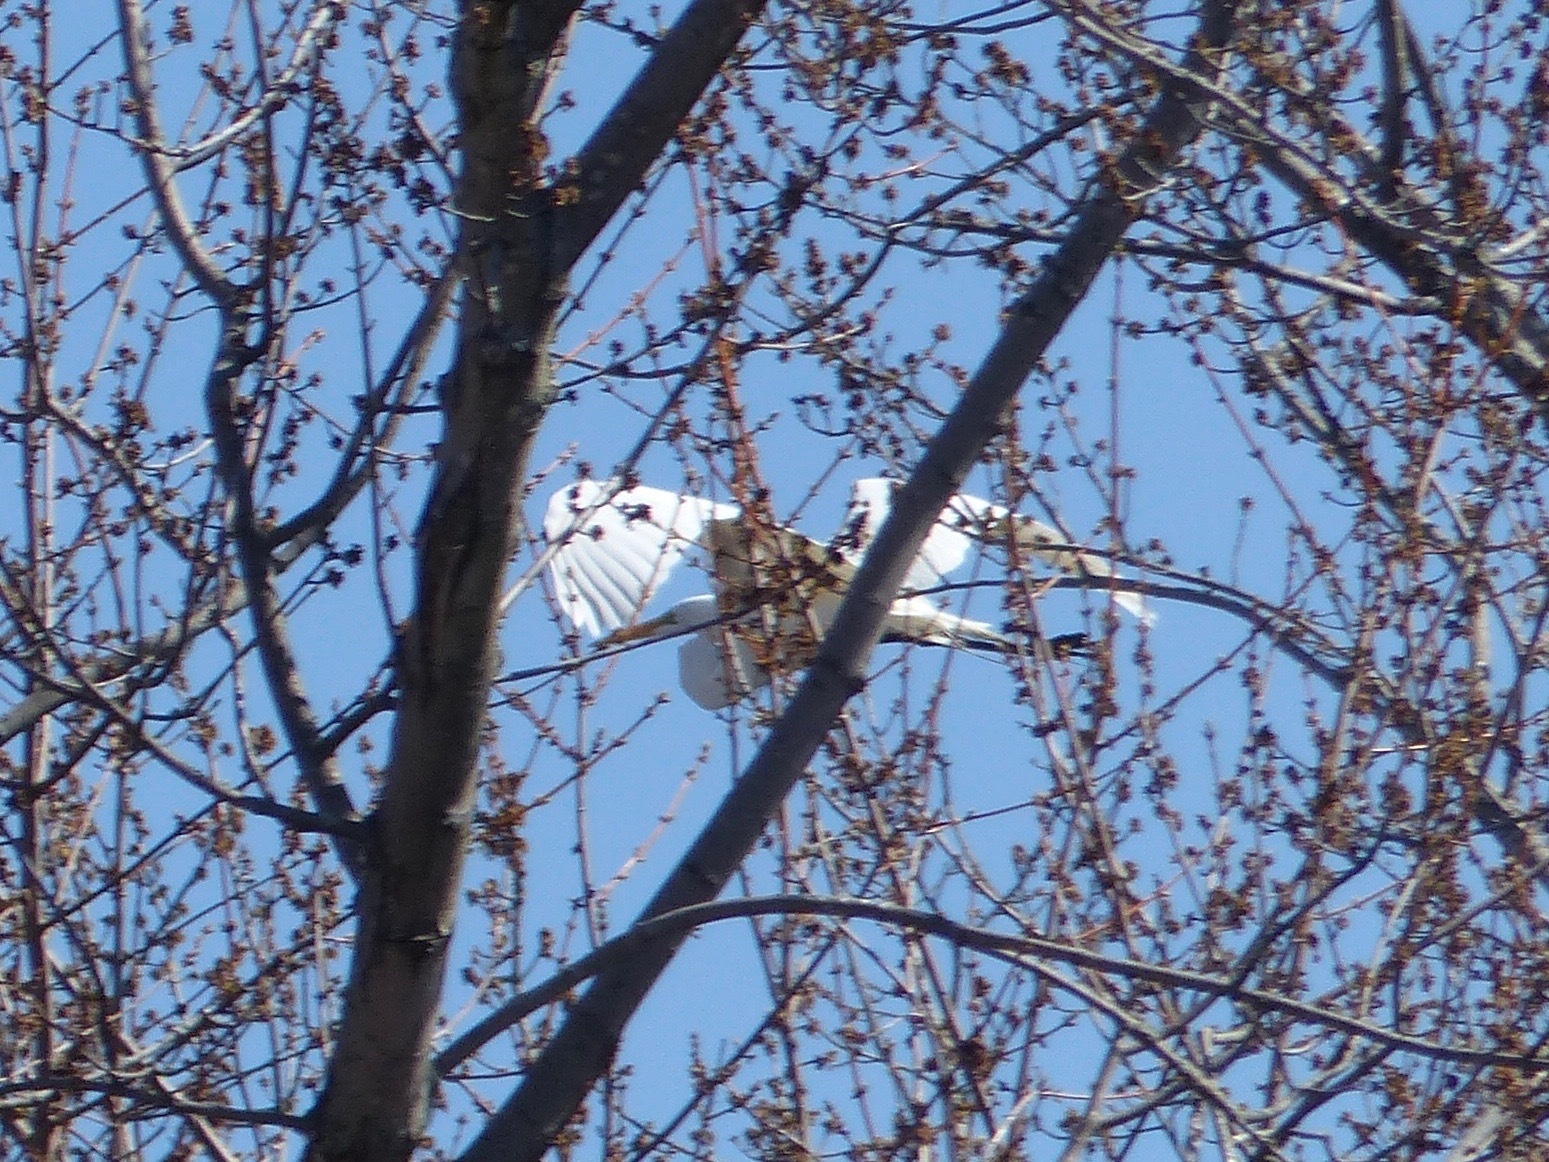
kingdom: Animalia
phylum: Chordata
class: Aves
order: Pelecaniformes
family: Ardeidae
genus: Ardea
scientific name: Ardea alba
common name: Great egret
